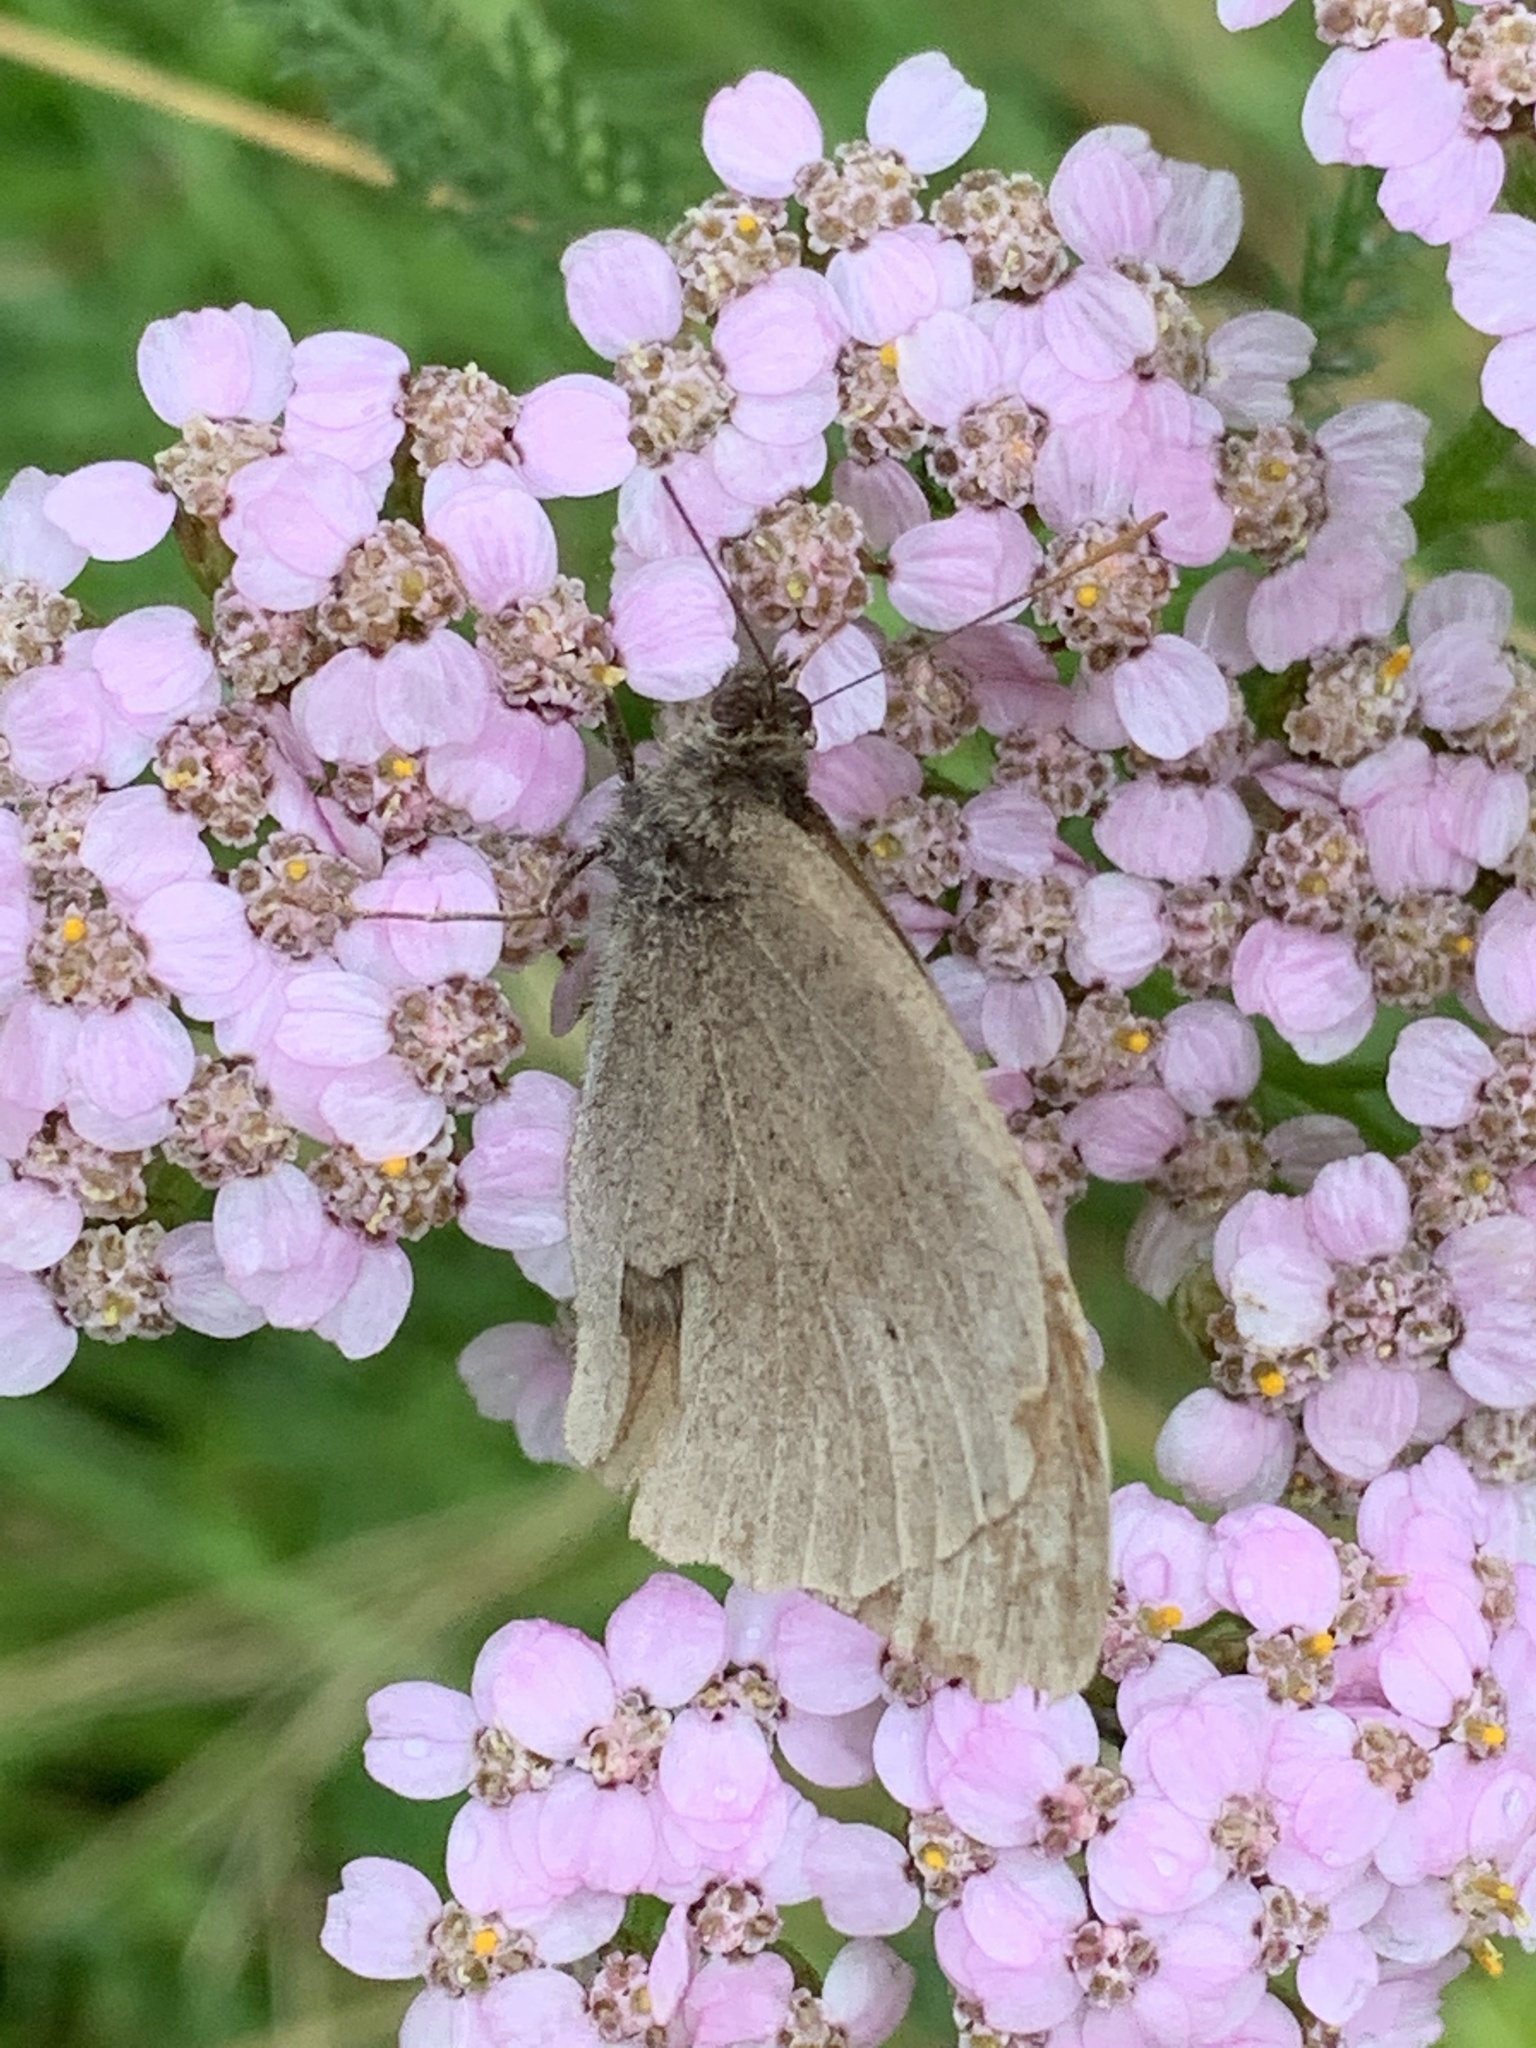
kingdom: Animalia
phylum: Arthropoda
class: Insecta
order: Lepidoptera
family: Nymphalidae
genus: Maniola
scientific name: Maniola jurtina
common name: Meadow brown
